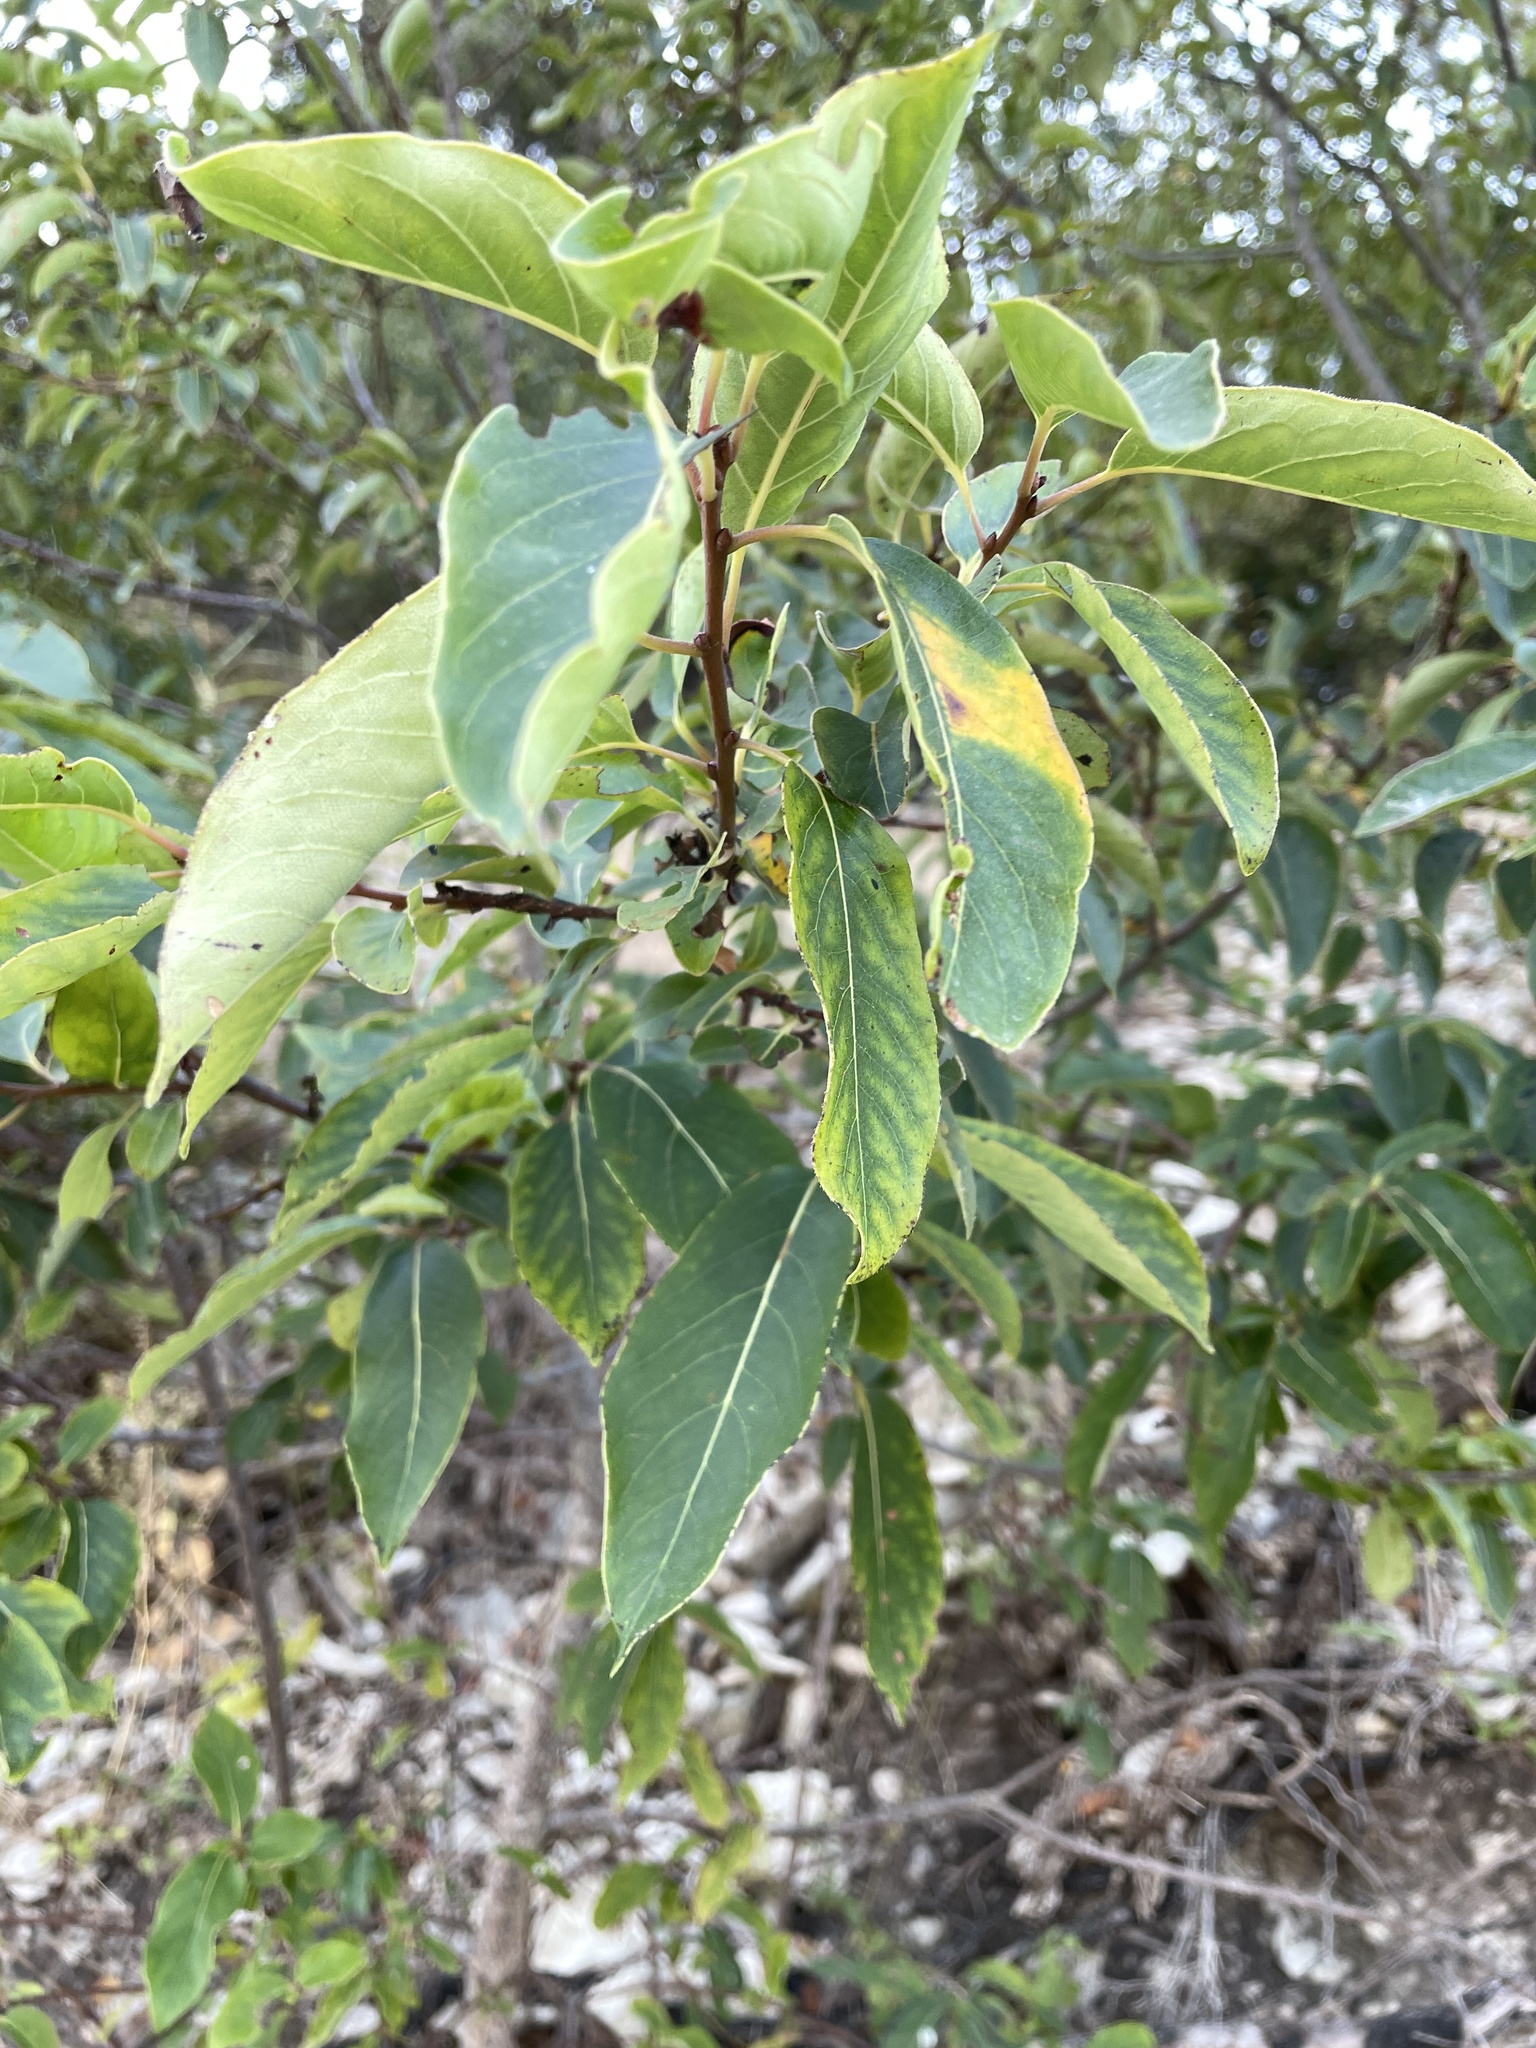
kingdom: Plantae
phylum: Tracheophyta
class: Magnoliopsida
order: Ericales
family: Ebenaceae
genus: Diospyros
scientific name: Diospyros virginiana
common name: Persimmon
